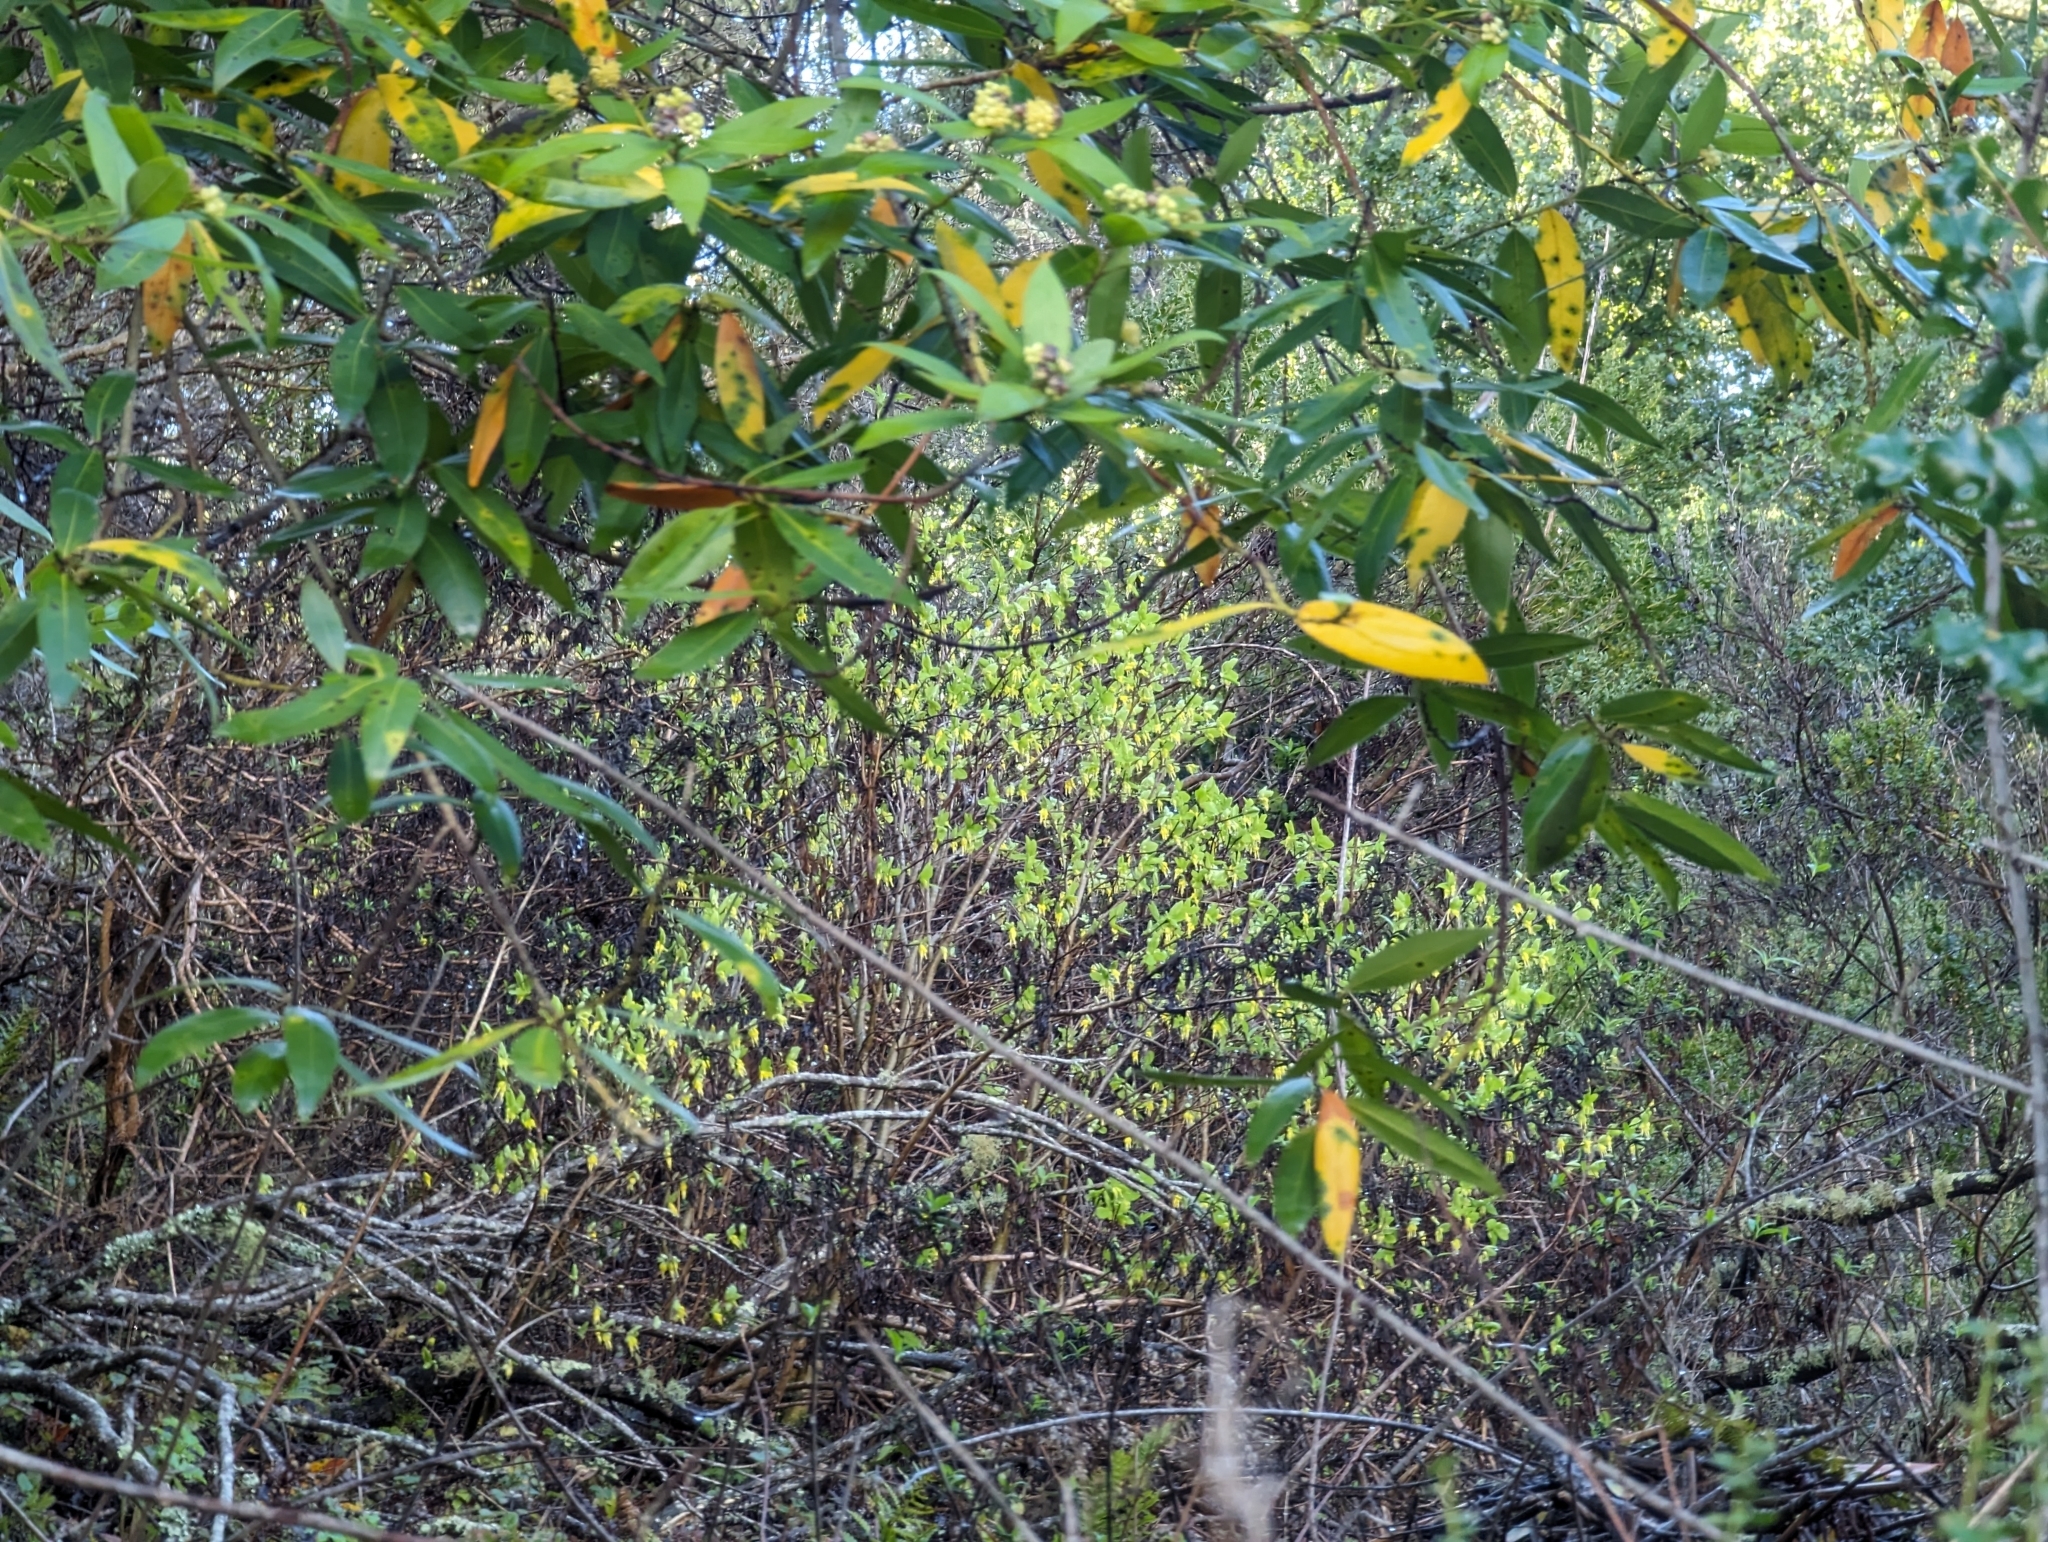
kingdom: Plantae
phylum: Tracheophyta
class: Magnoliopsida
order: Malvales
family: Thymelaeaceae
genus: Dirca
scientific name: Dirca occidentalis
